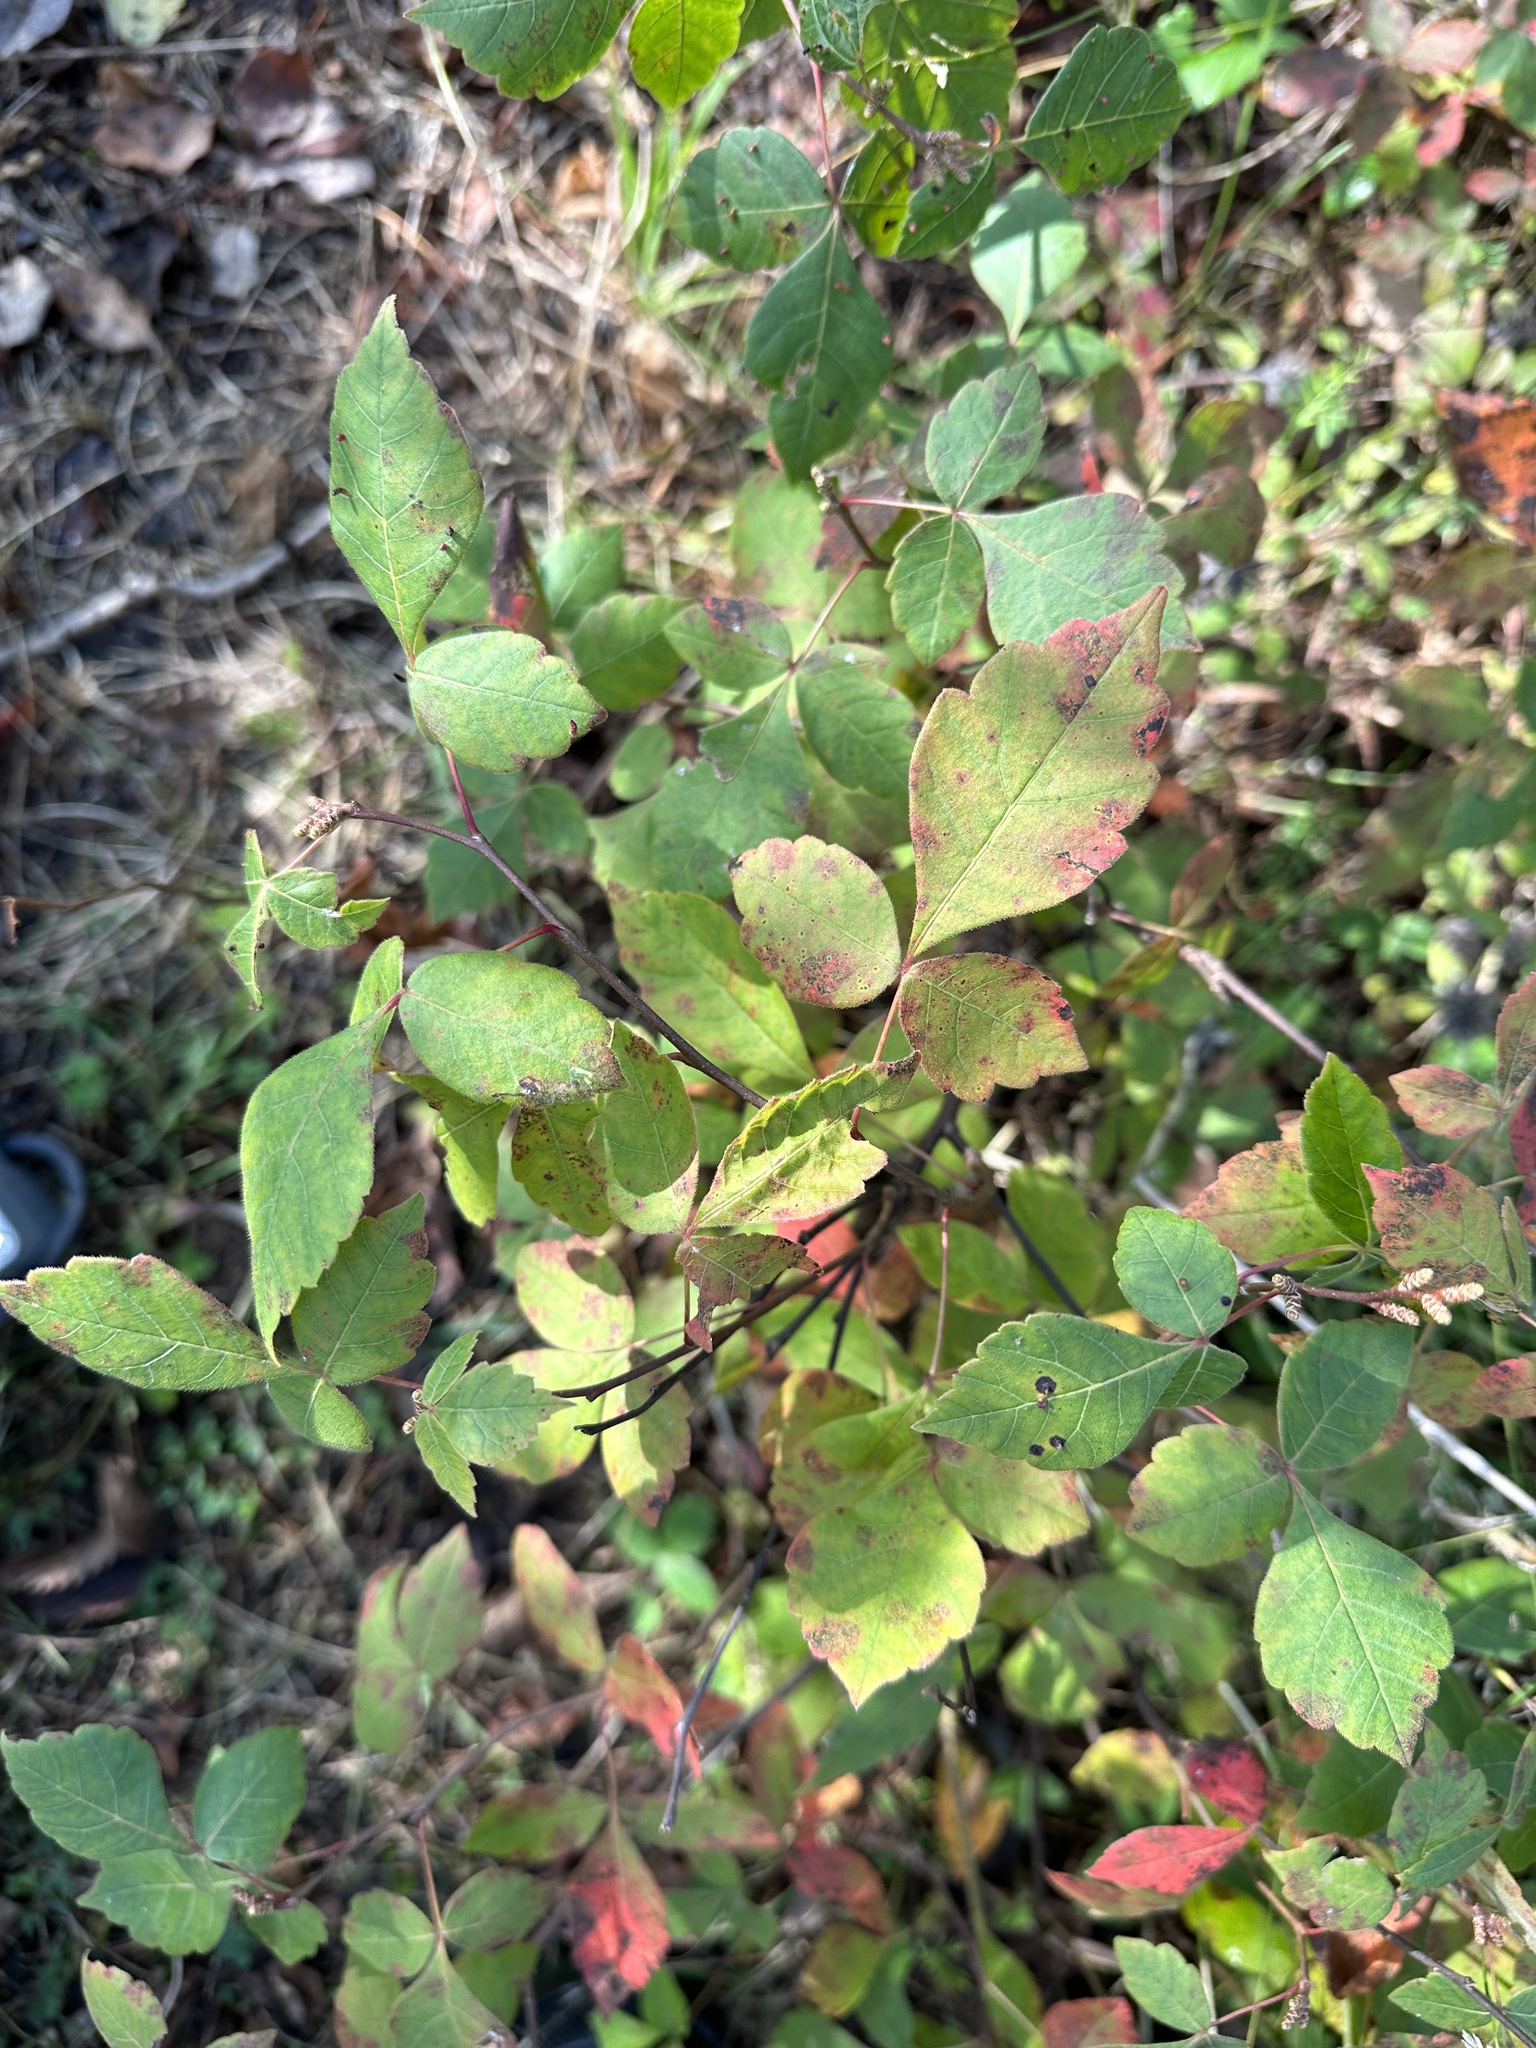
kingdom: Plantae
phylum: Tracheophyta
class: Magnoliopsida
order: Sapindales
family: Anacardiaceae
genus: Rhus
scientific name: Rhus aromatica
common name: Aromatic sumac
